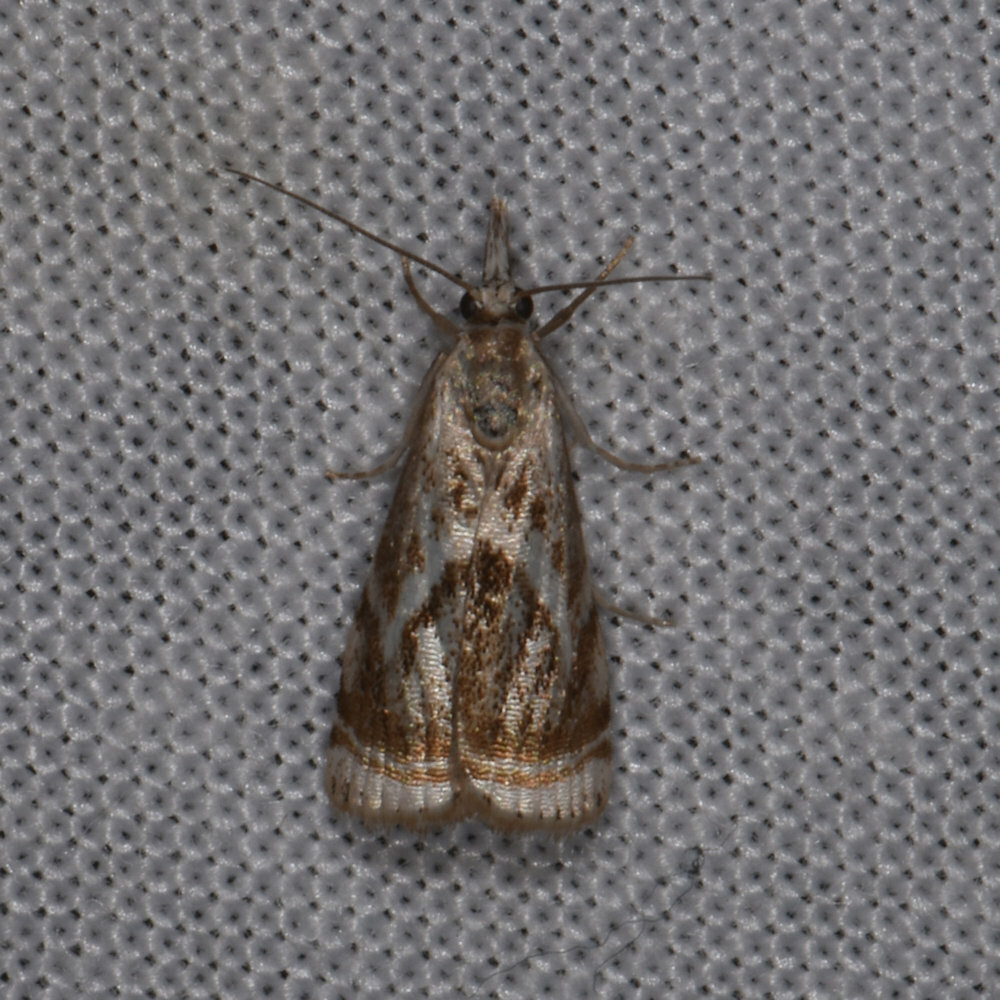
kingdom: Animalia
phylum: Arthropoda
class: Insecta
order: Lepidoptera
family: Crambidae
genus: Microcrambus
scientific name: Microcrambus elegans
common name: Elegant grass-veneer
